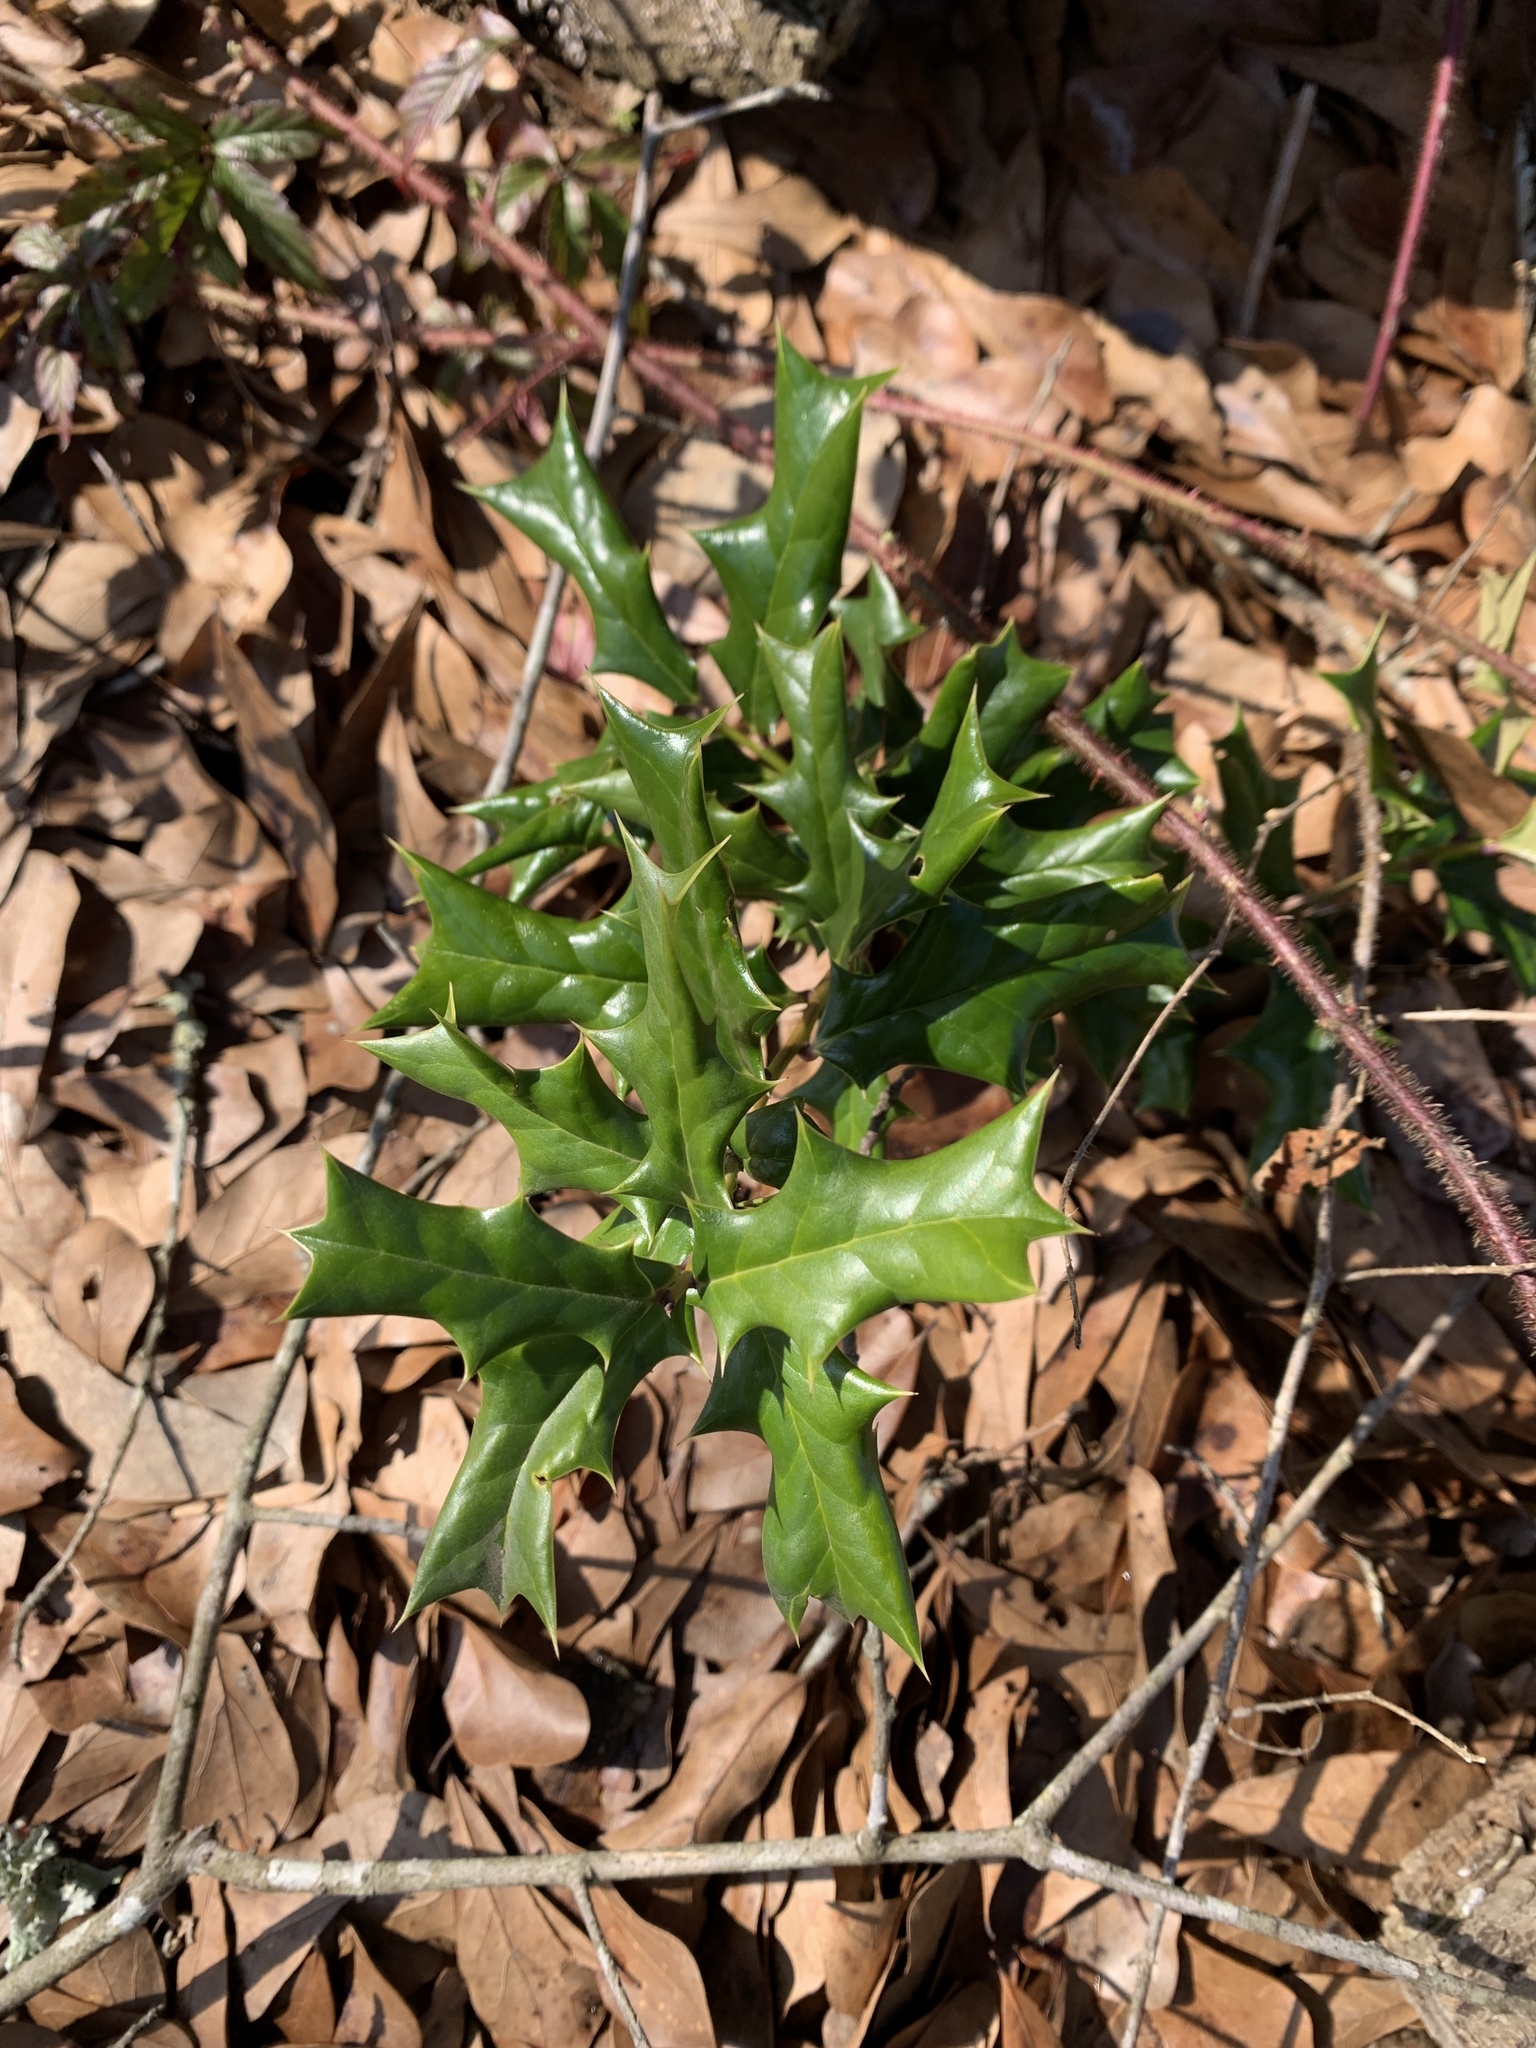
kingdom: Plantae
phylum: Tracheophyta
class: Magnoliopsida
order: Aquifoliales
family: Aquifoliaceae
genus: Ilex
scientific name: Ilex cornuta
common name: Chinese holly
